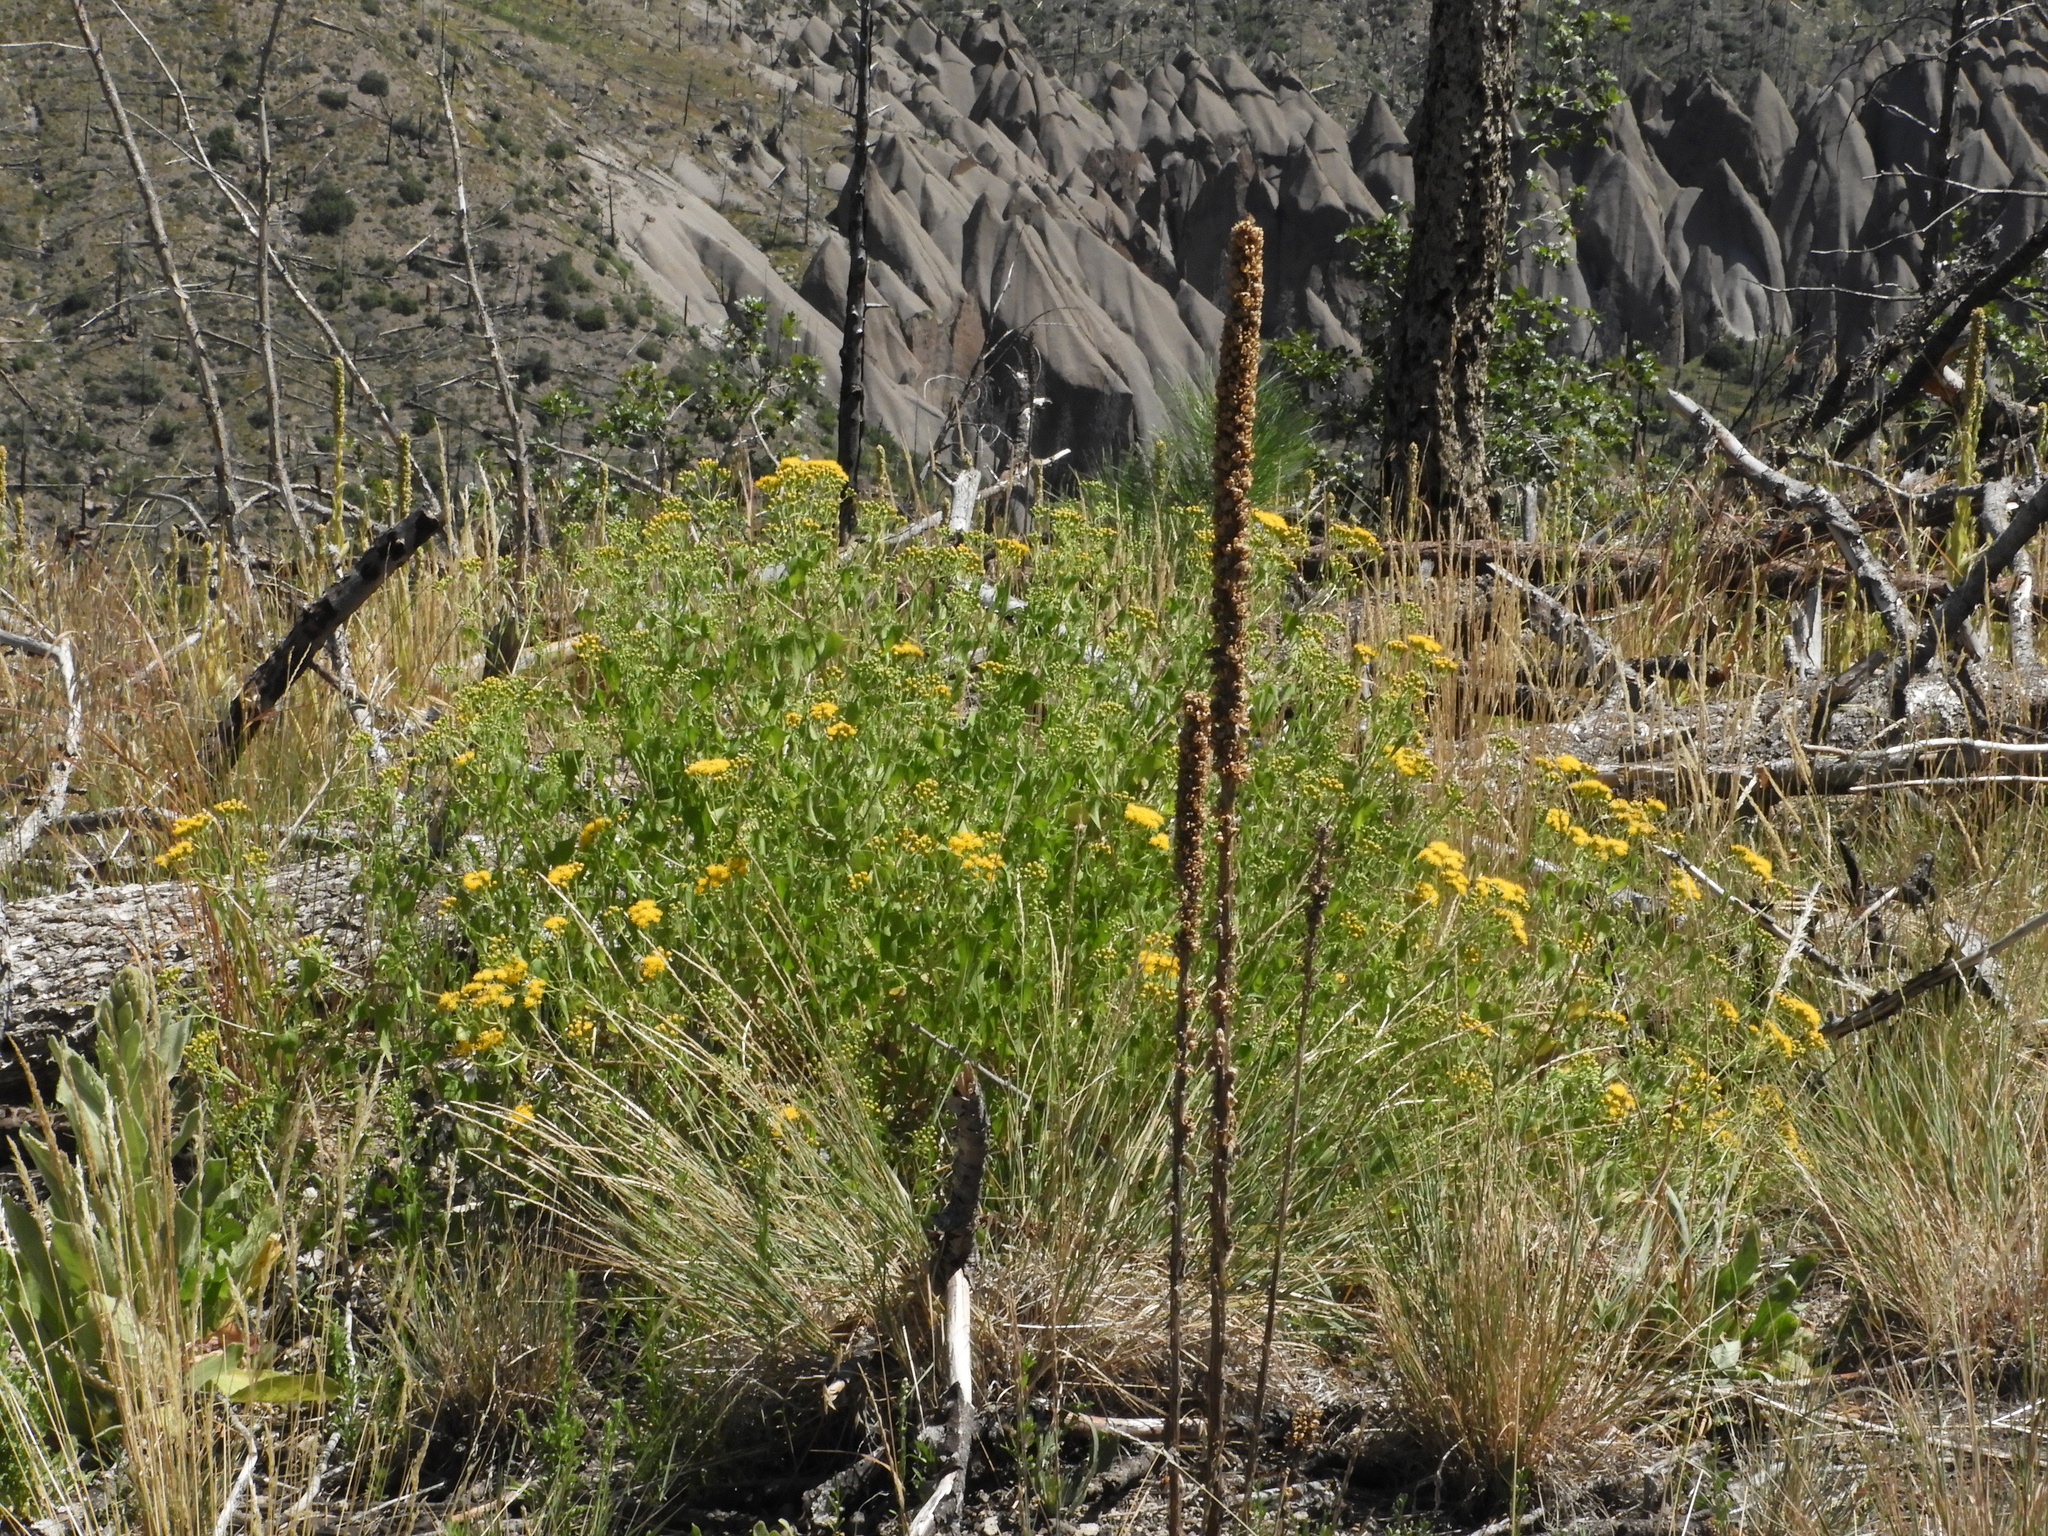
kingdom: Plantae
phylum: Tracheophyta
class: Magnoliopsida
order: Asterales
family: Asteraceae
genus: Pericome
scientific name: Pericome caudata
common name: Taperleaf
